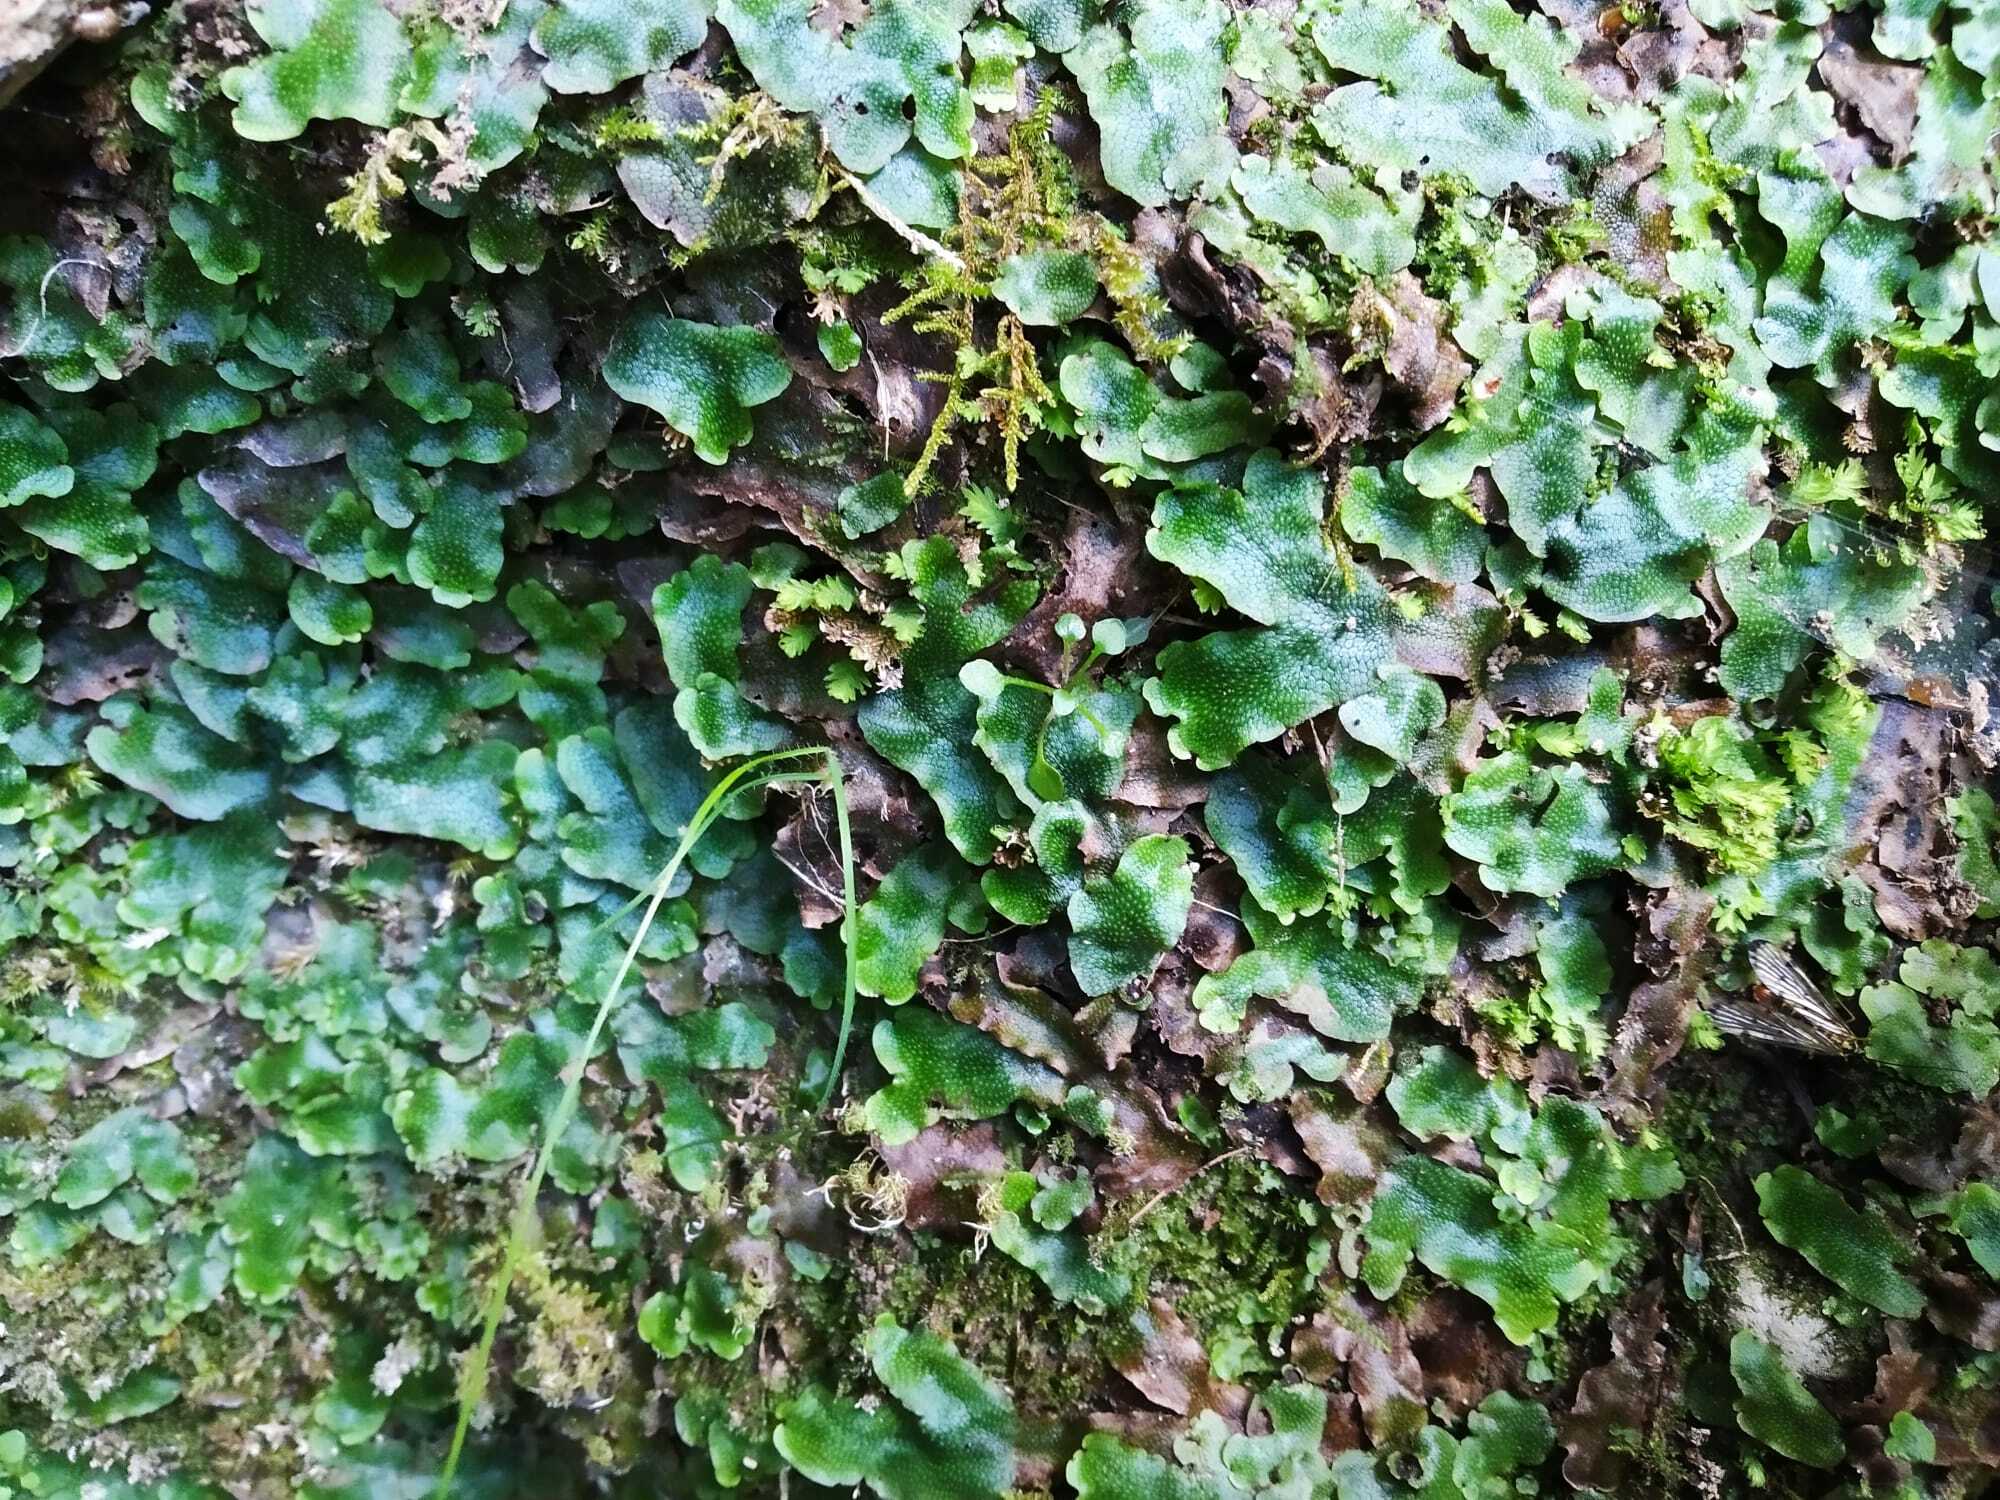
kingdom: Plantae
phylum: Marchantiophyta
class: Marchantiopsida
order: Marchantiales
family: Conocephalaceae
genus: Conocephalum
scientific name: Conocephalum salebrosum
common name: Cat-tongue liverwort
